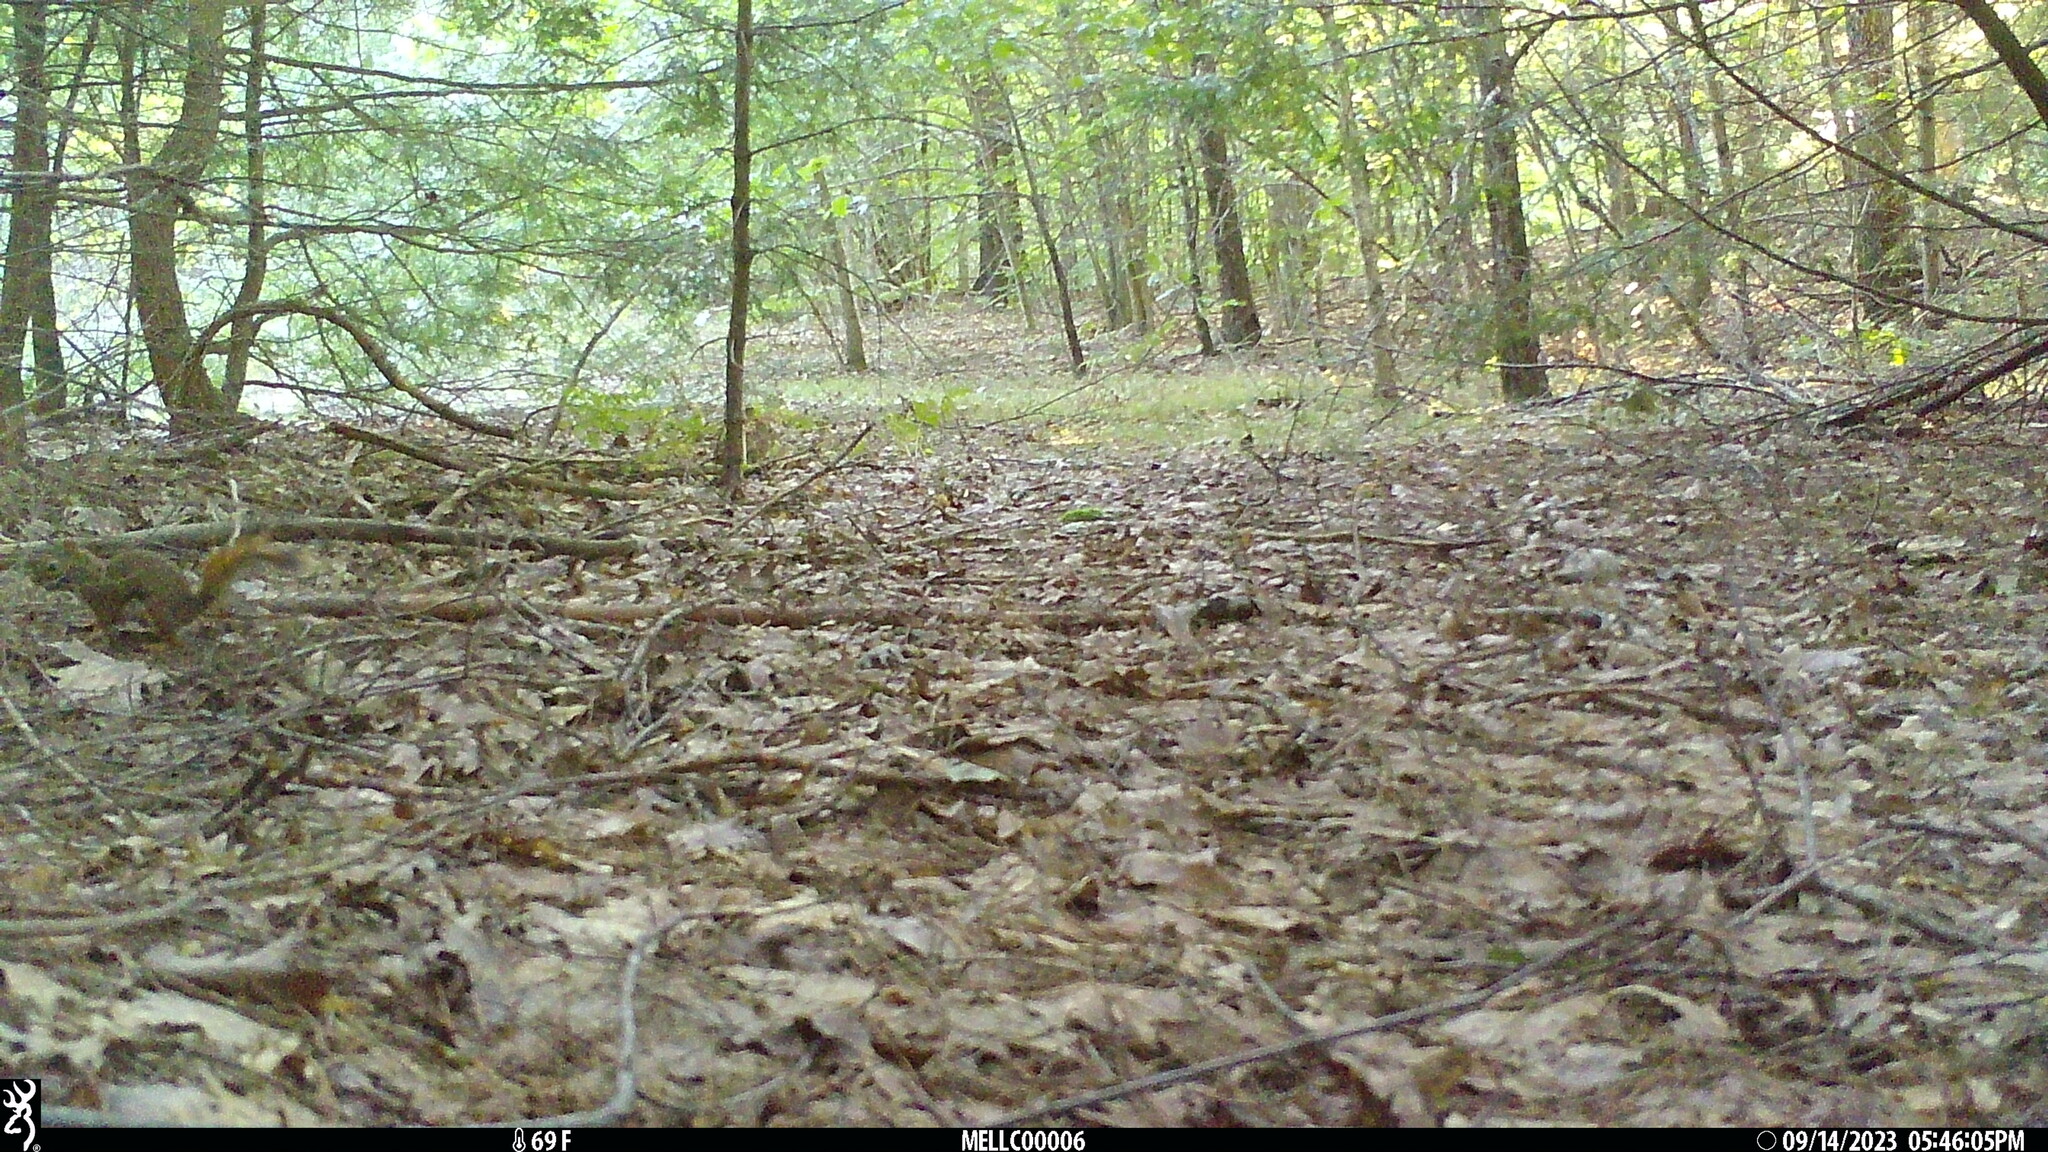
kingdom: Animalia
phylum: Chordata
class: Mammalia
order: Rodentia
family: Sciuridae
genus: Tamiasciurus
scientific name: Tamiasciurus hudsonicus
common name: Red squirrel
